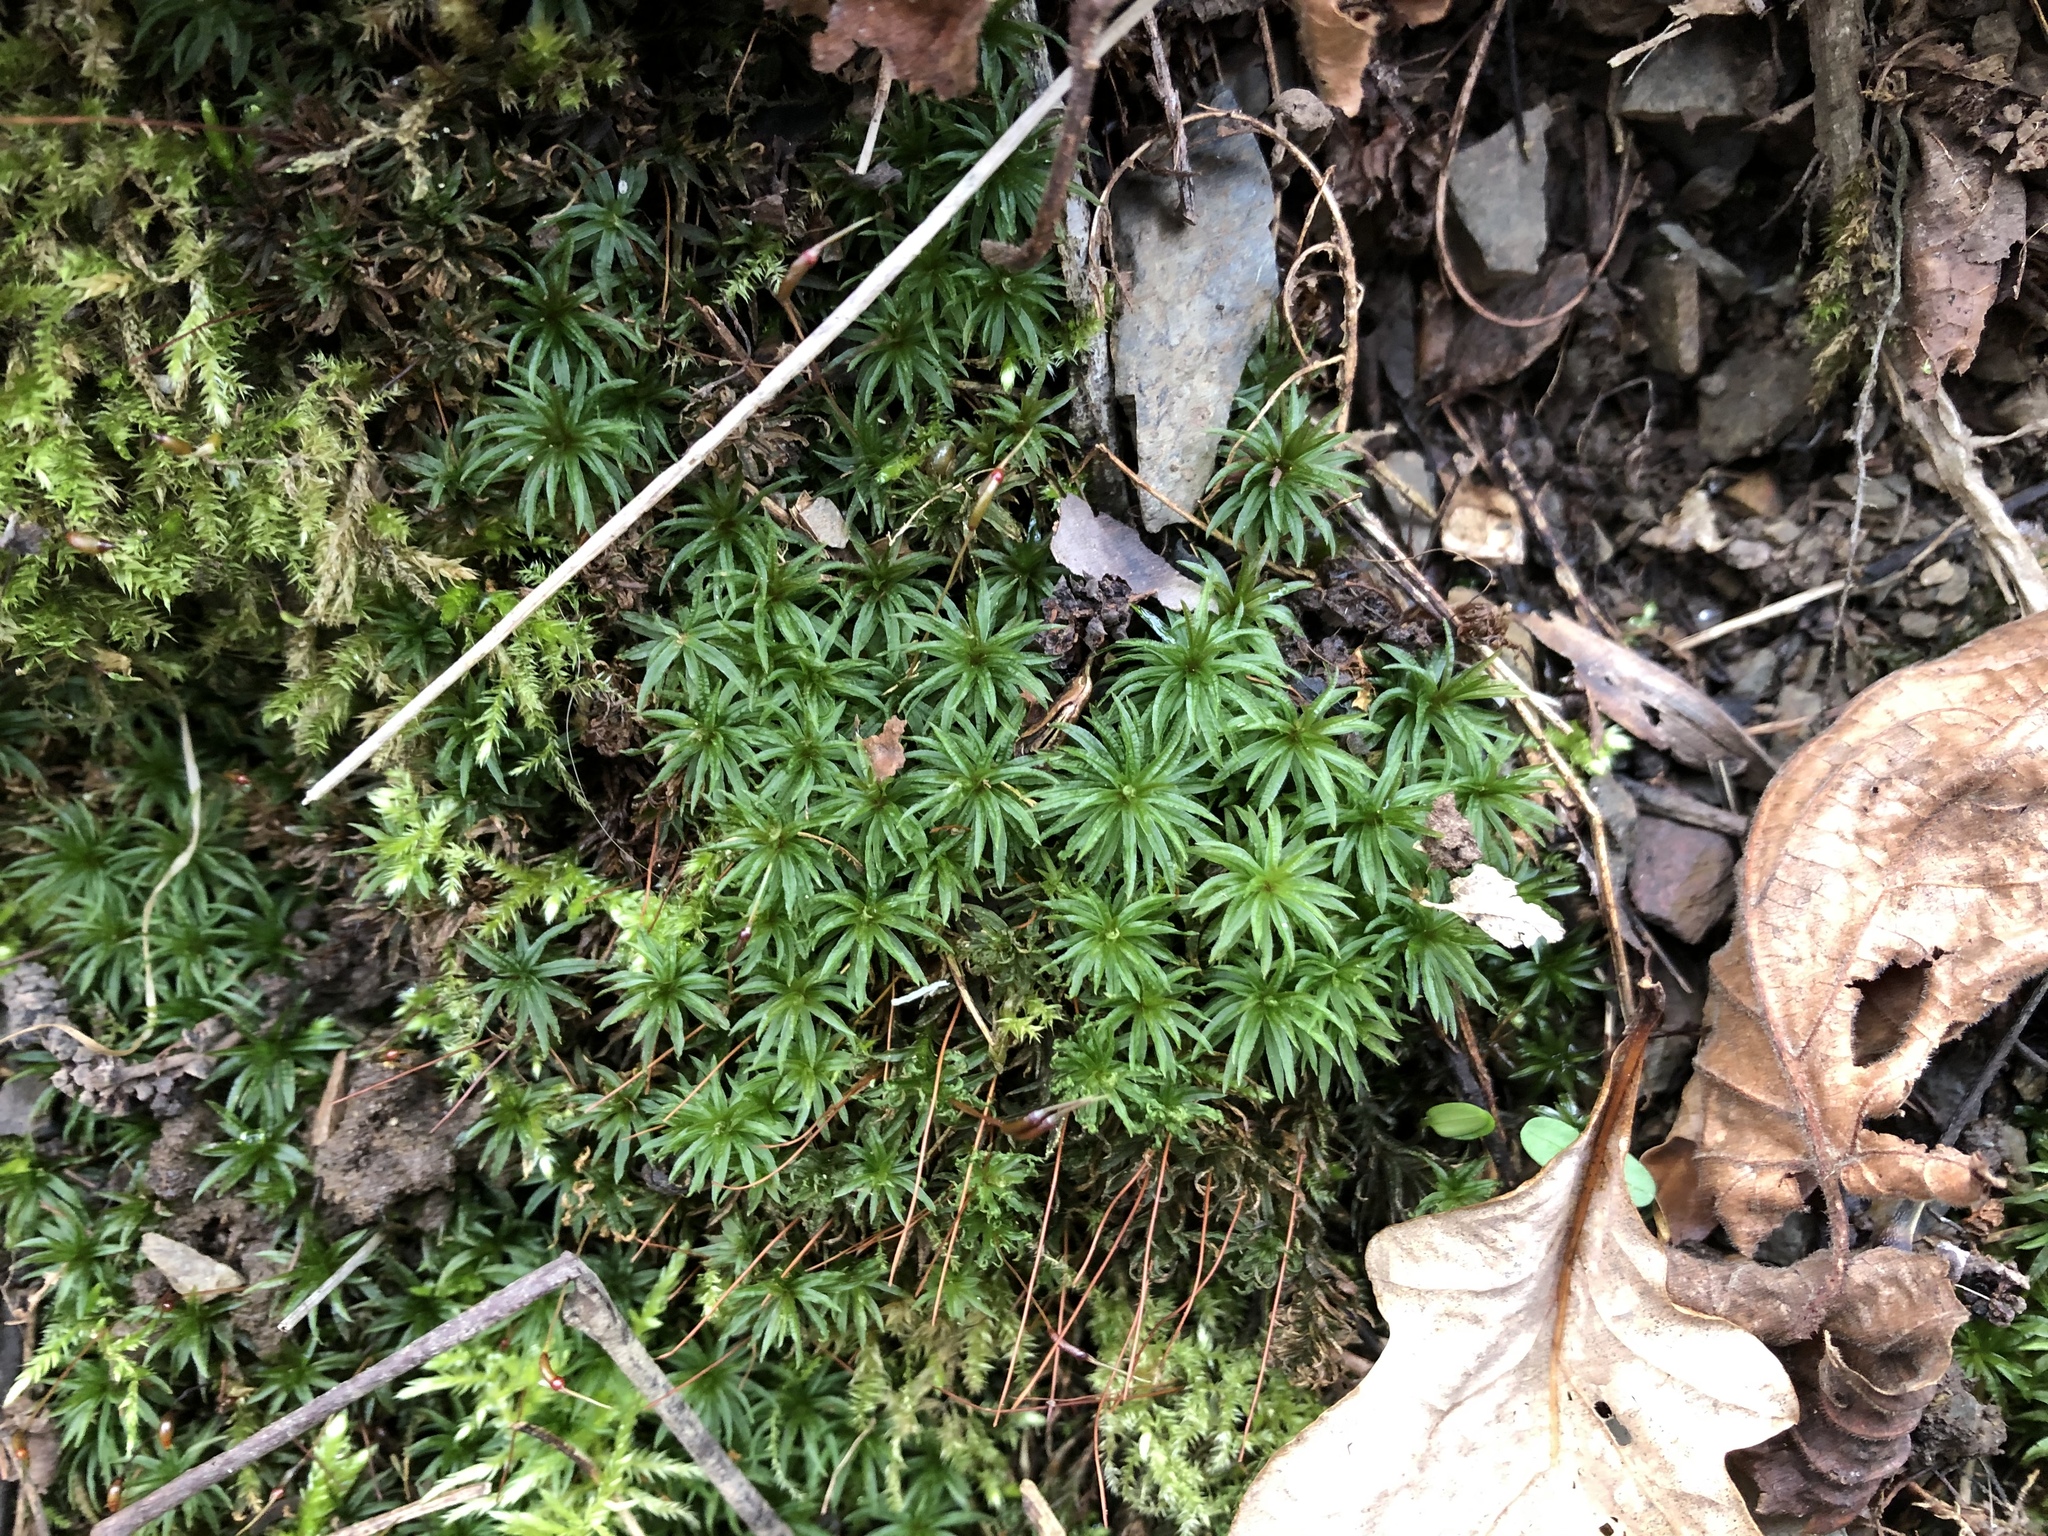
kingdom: Plantae
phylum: Bryophyta
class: Polytrichopsida
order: Polytrichales
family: Polytrichaceae
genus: Atrichum
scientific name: Atrichum undulatum
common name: Common smoothcap
